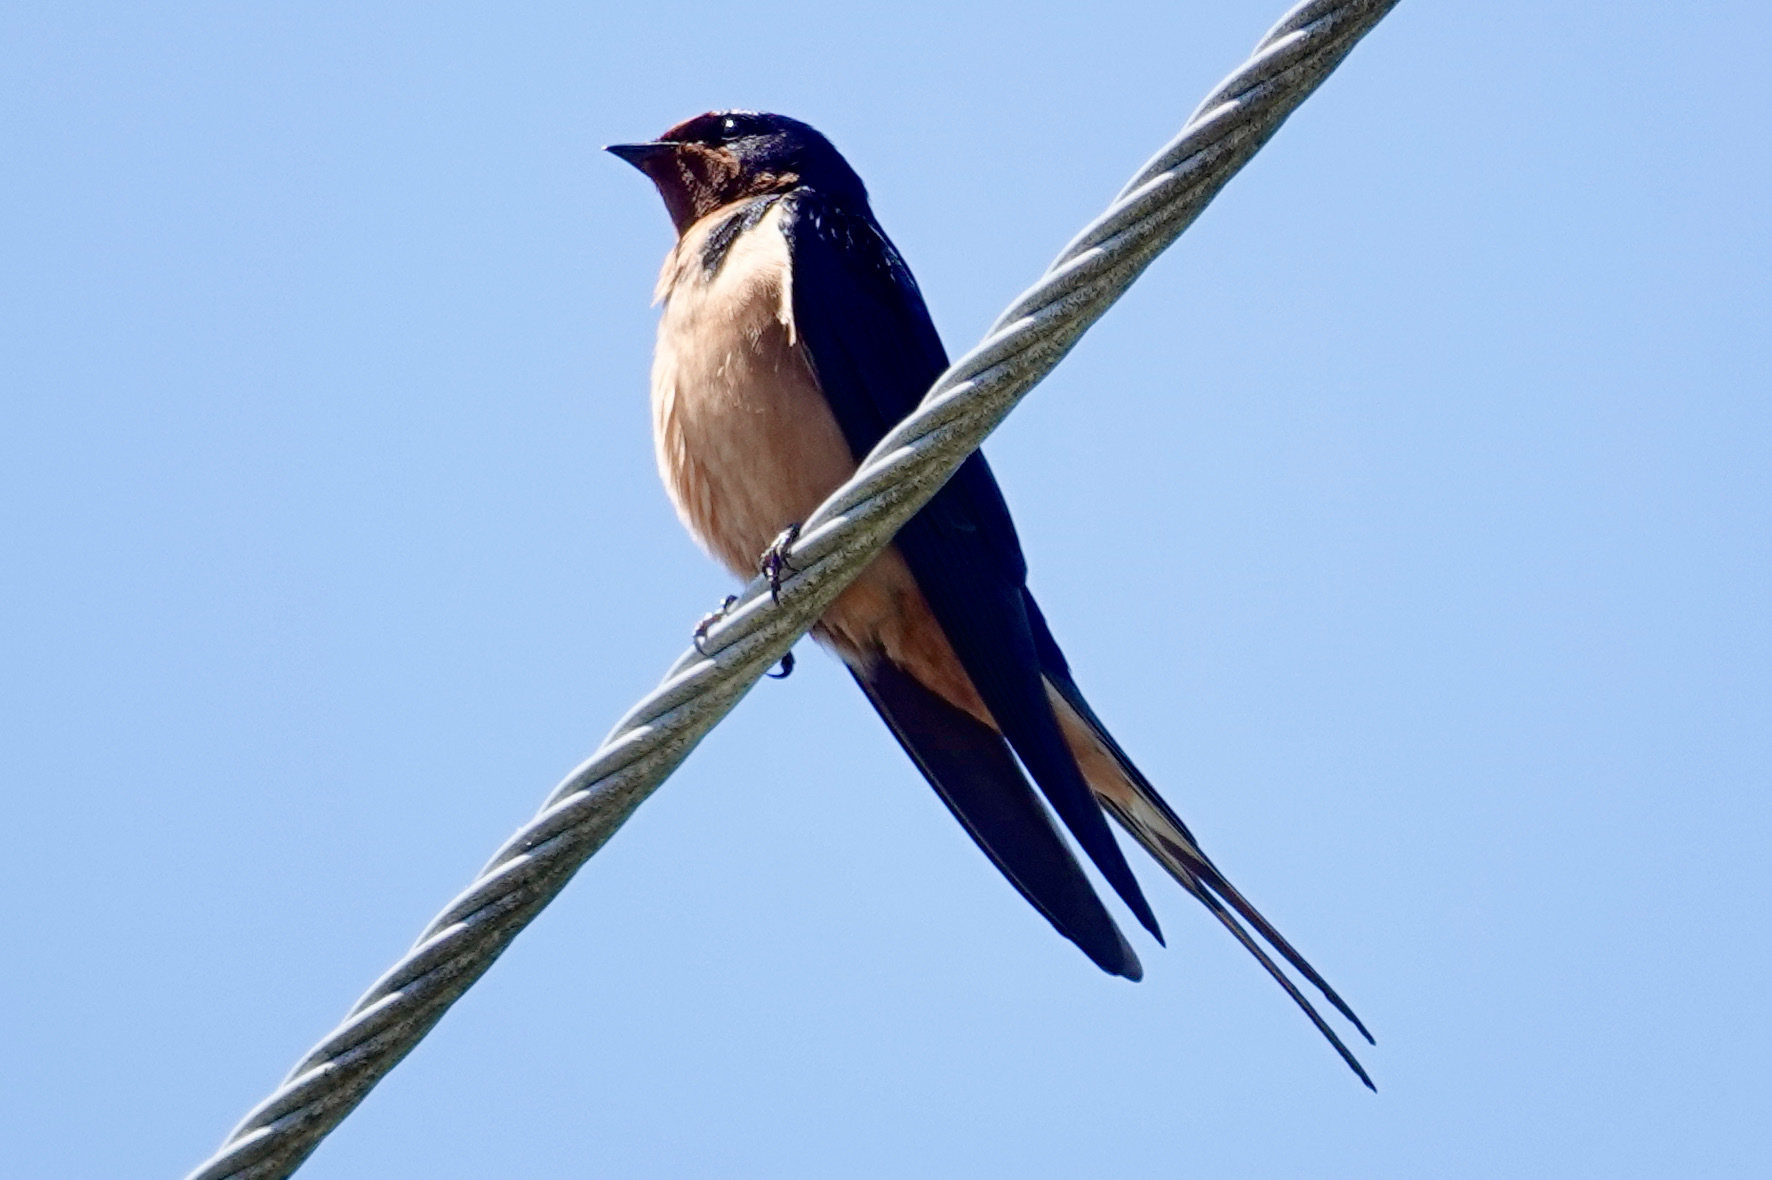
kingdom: Animalia
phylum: Chordata
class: Aves
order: Passeriformes
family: Hirundinidae
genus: Hirundo
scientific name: Hirundo rustica
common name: Barn swallow
